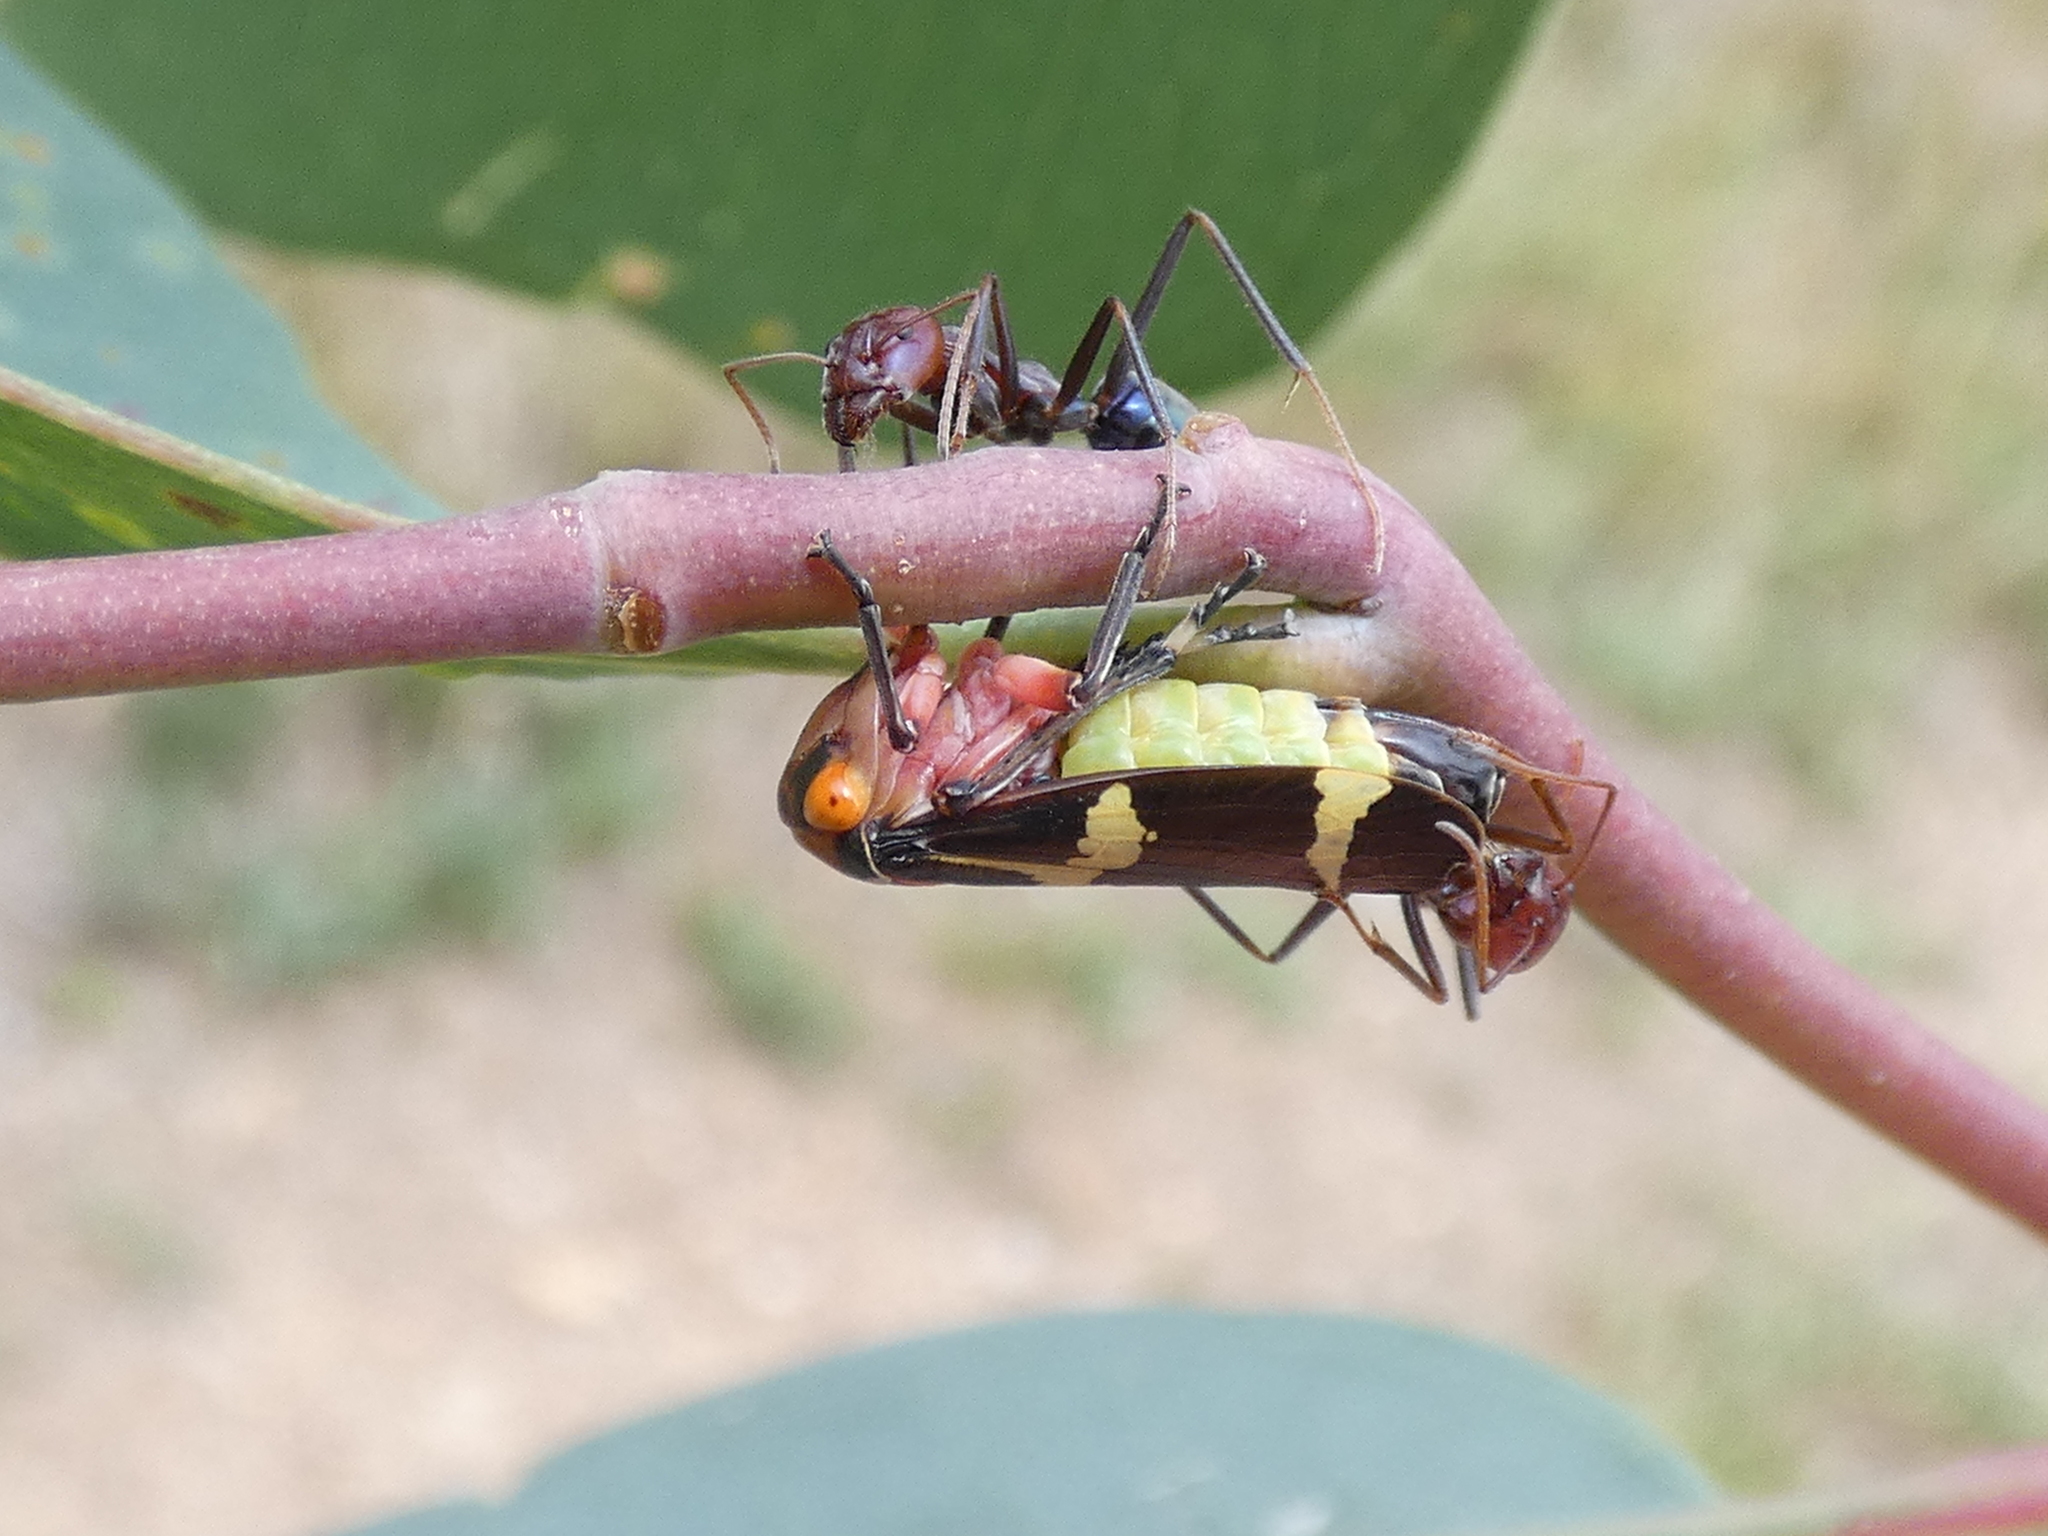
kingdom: Animalia
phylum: Arthropoda
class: Insecta
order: Hemiptera
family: Cicadellidae
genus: Eurymeloides
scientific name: Eurymeloides pulchra
